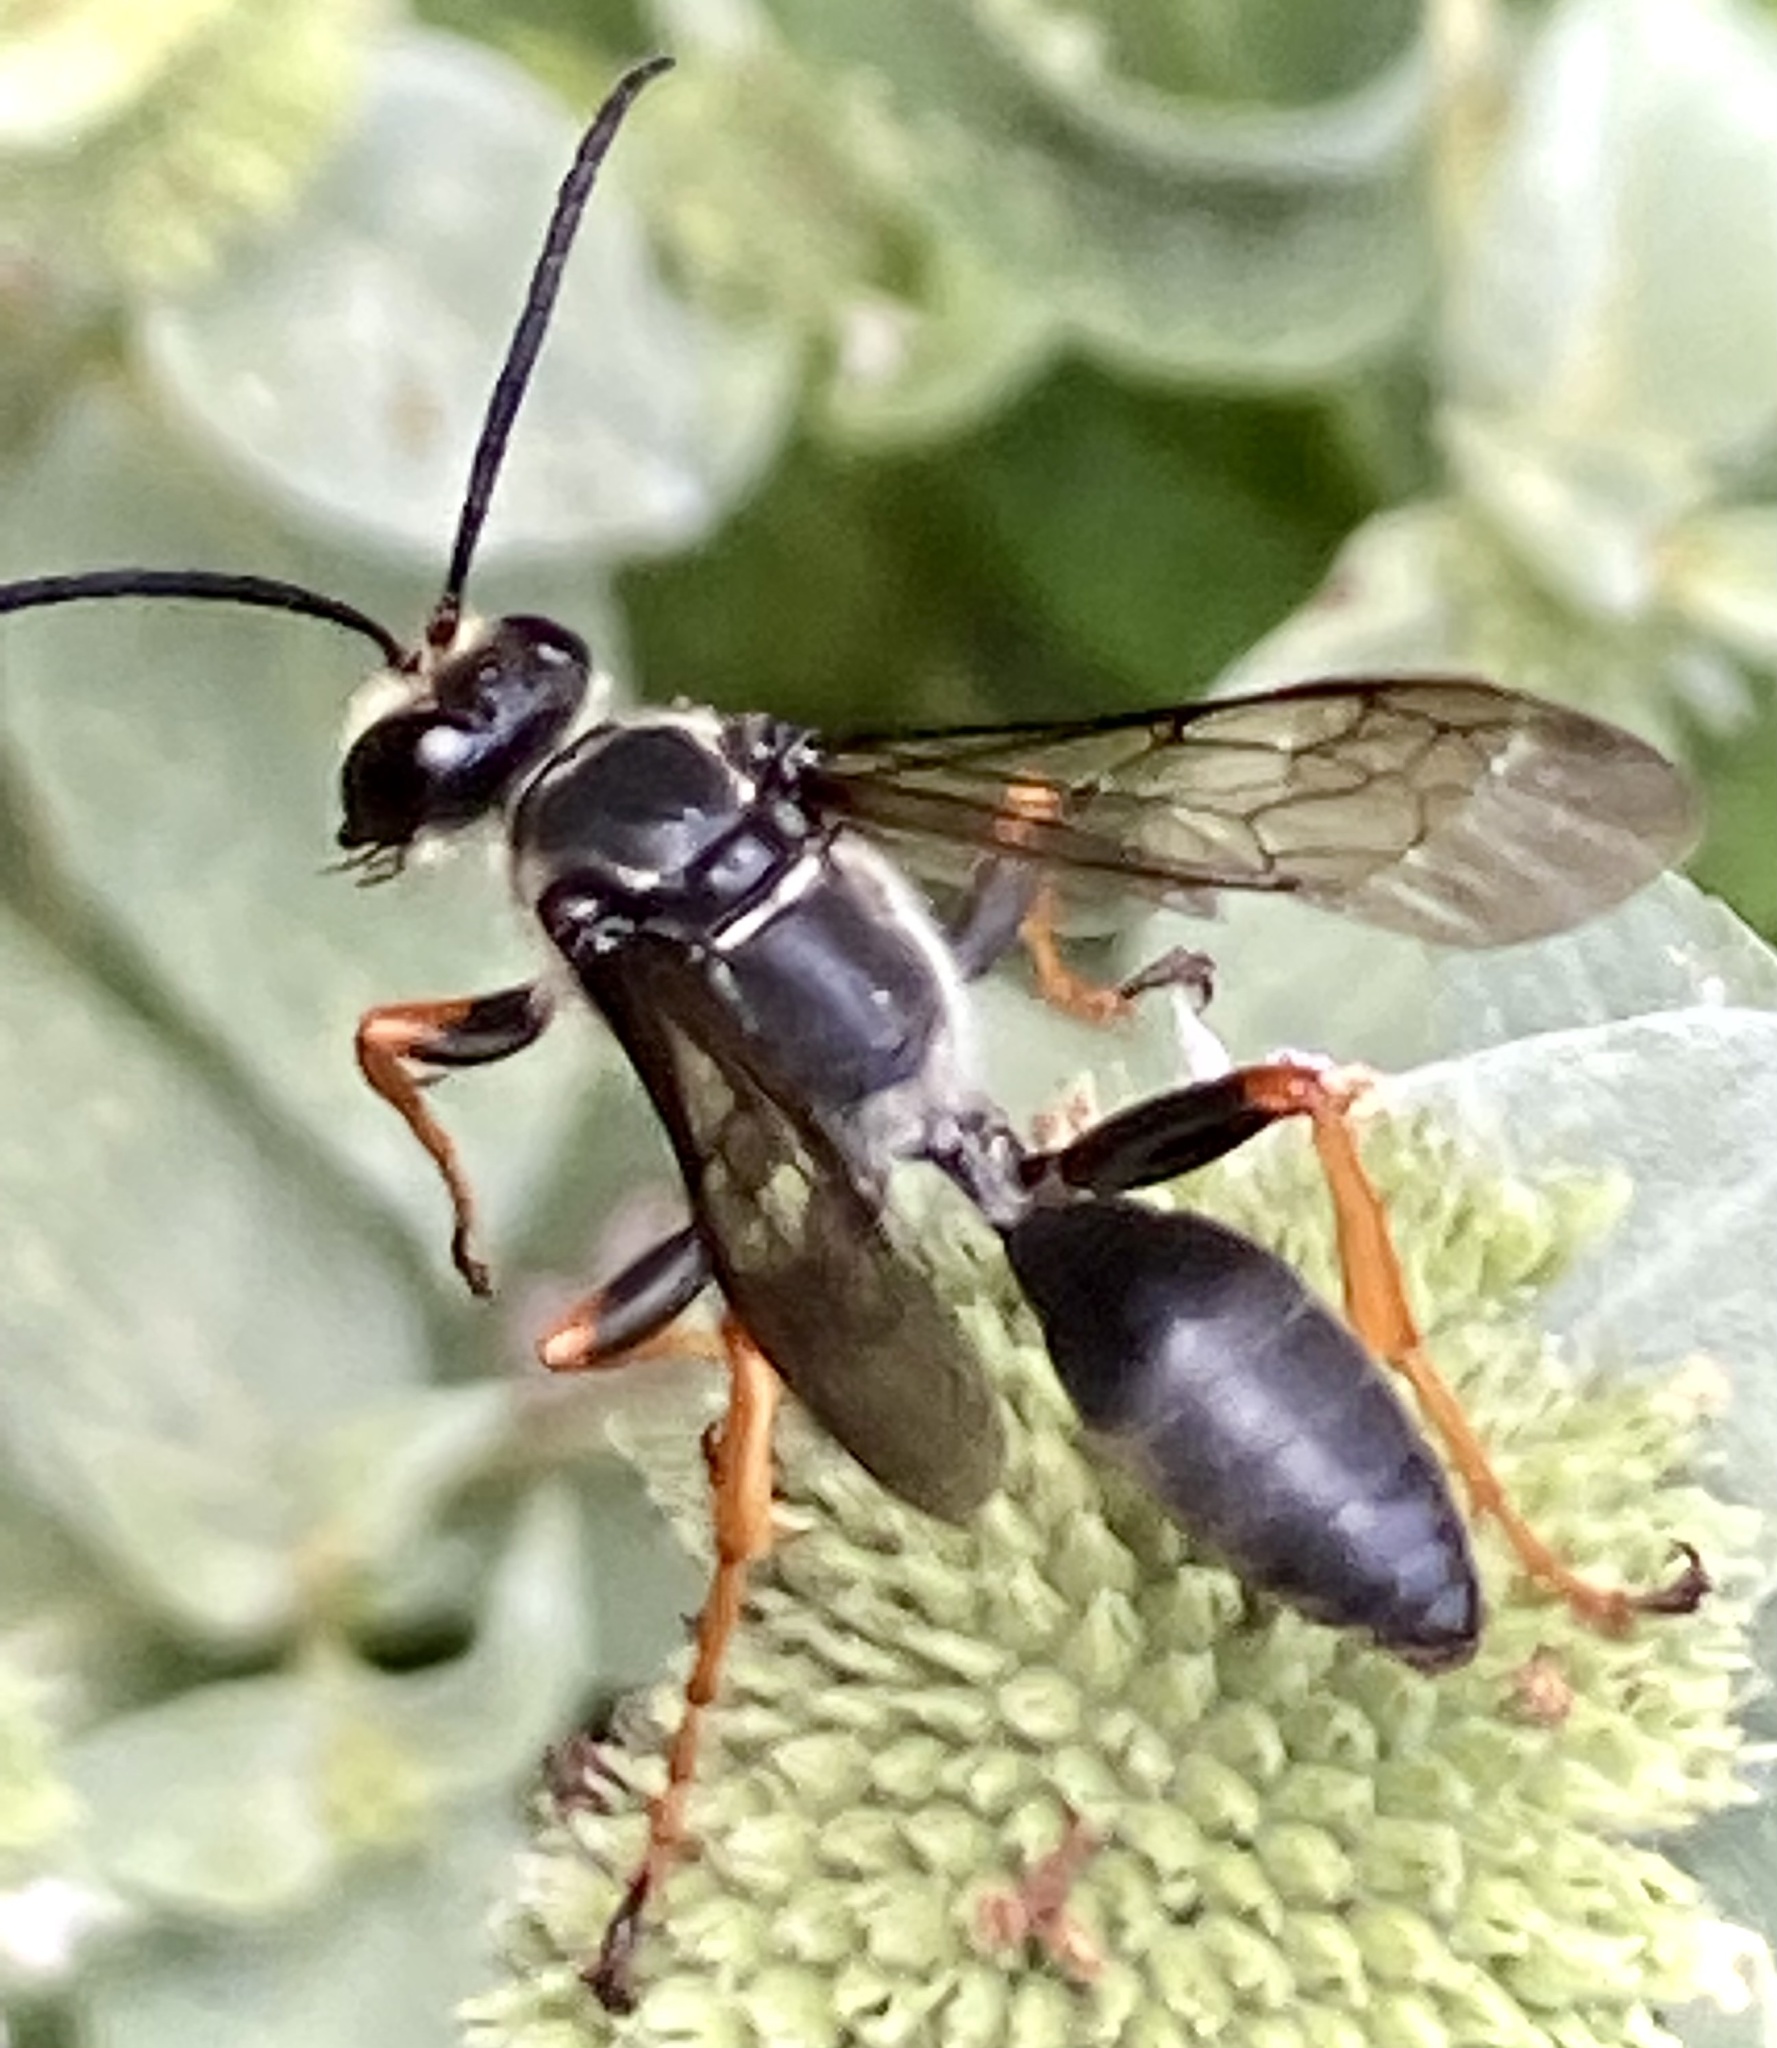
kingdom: Animalia
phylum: Arthropoda
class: Insecta
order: Hymenoptera
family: Sphecidae
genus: Sphex
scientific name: Sphex nudus
